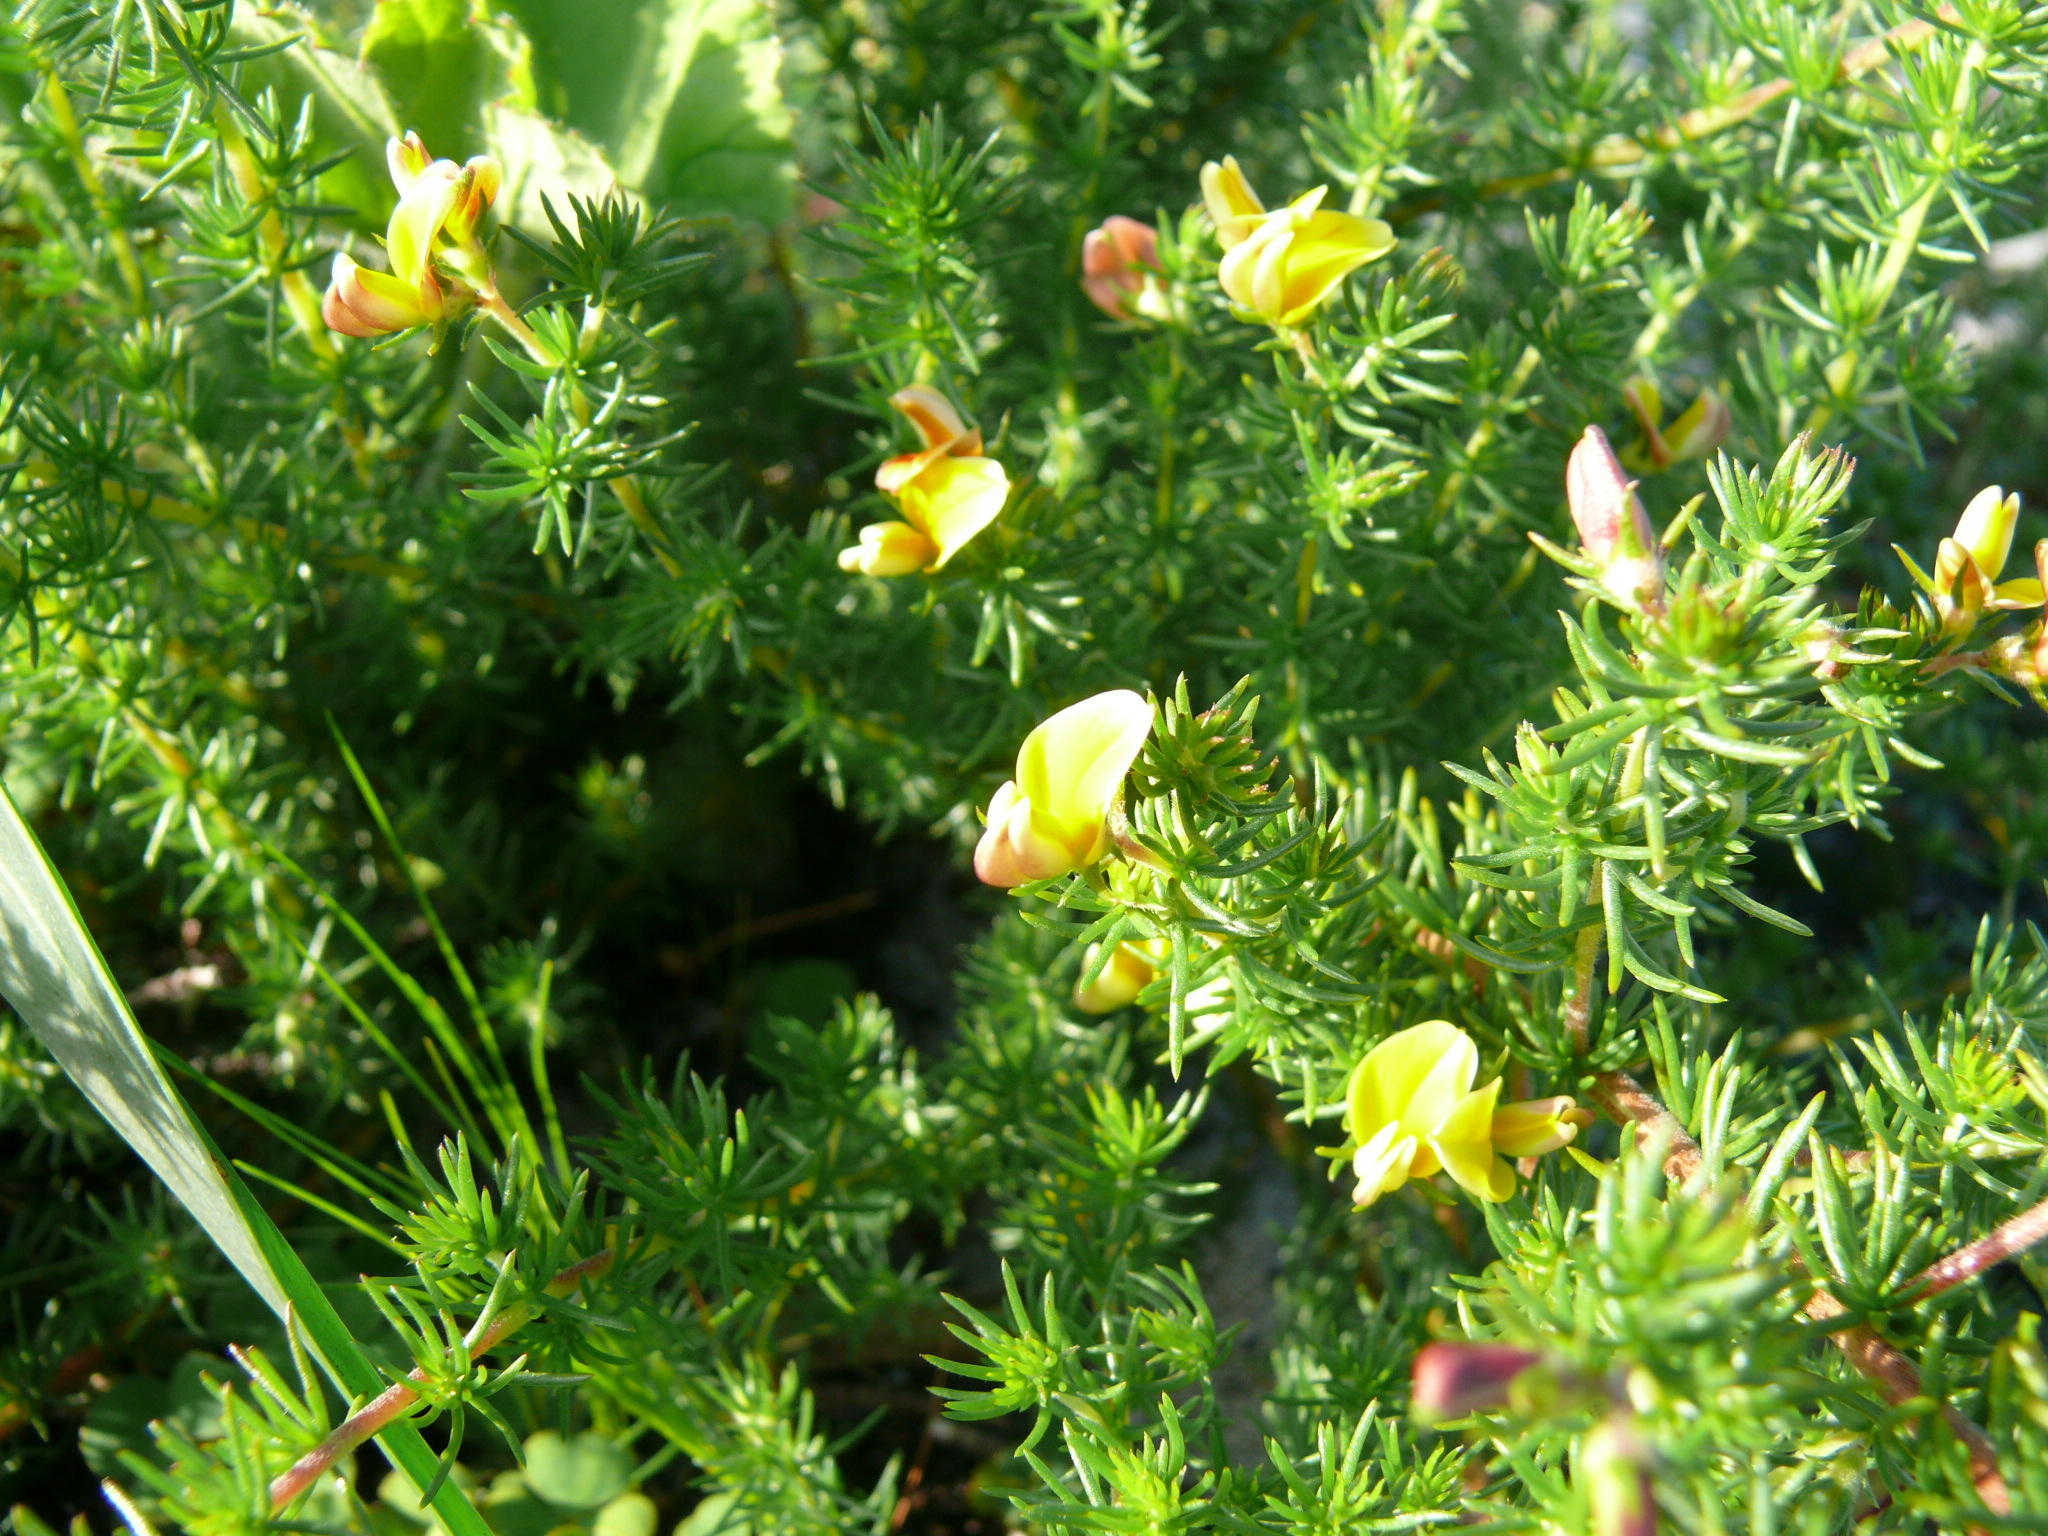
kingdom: Plantae
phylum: Tracheophyta
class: Magnoliopsida
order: Fabales
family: Fabaceae
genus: Aspalathus
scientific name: Aspalathus retroflexa
